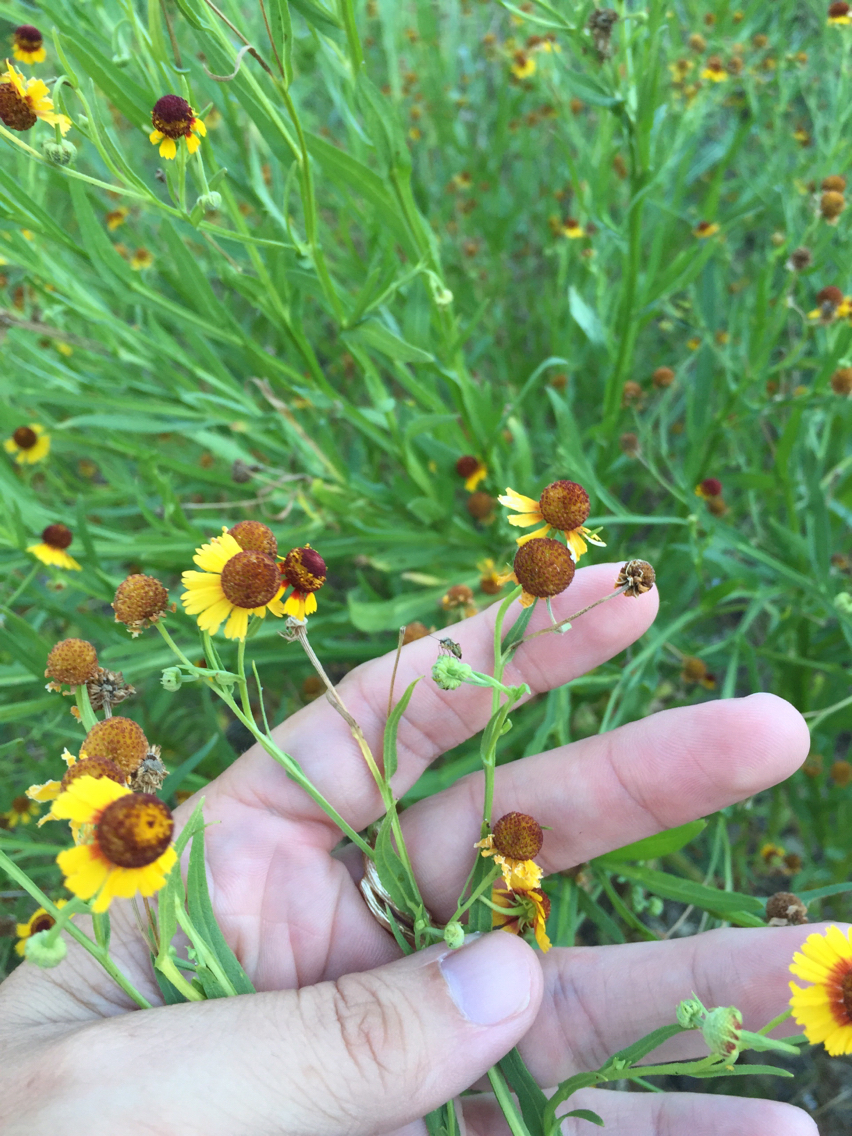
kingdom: Plantae
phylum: Tracheophyta
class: Magnoliopsida
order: Asterales
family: Asteraceae
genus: Helenium
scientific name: Helenium elegans
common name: Pretty sneezeweed
